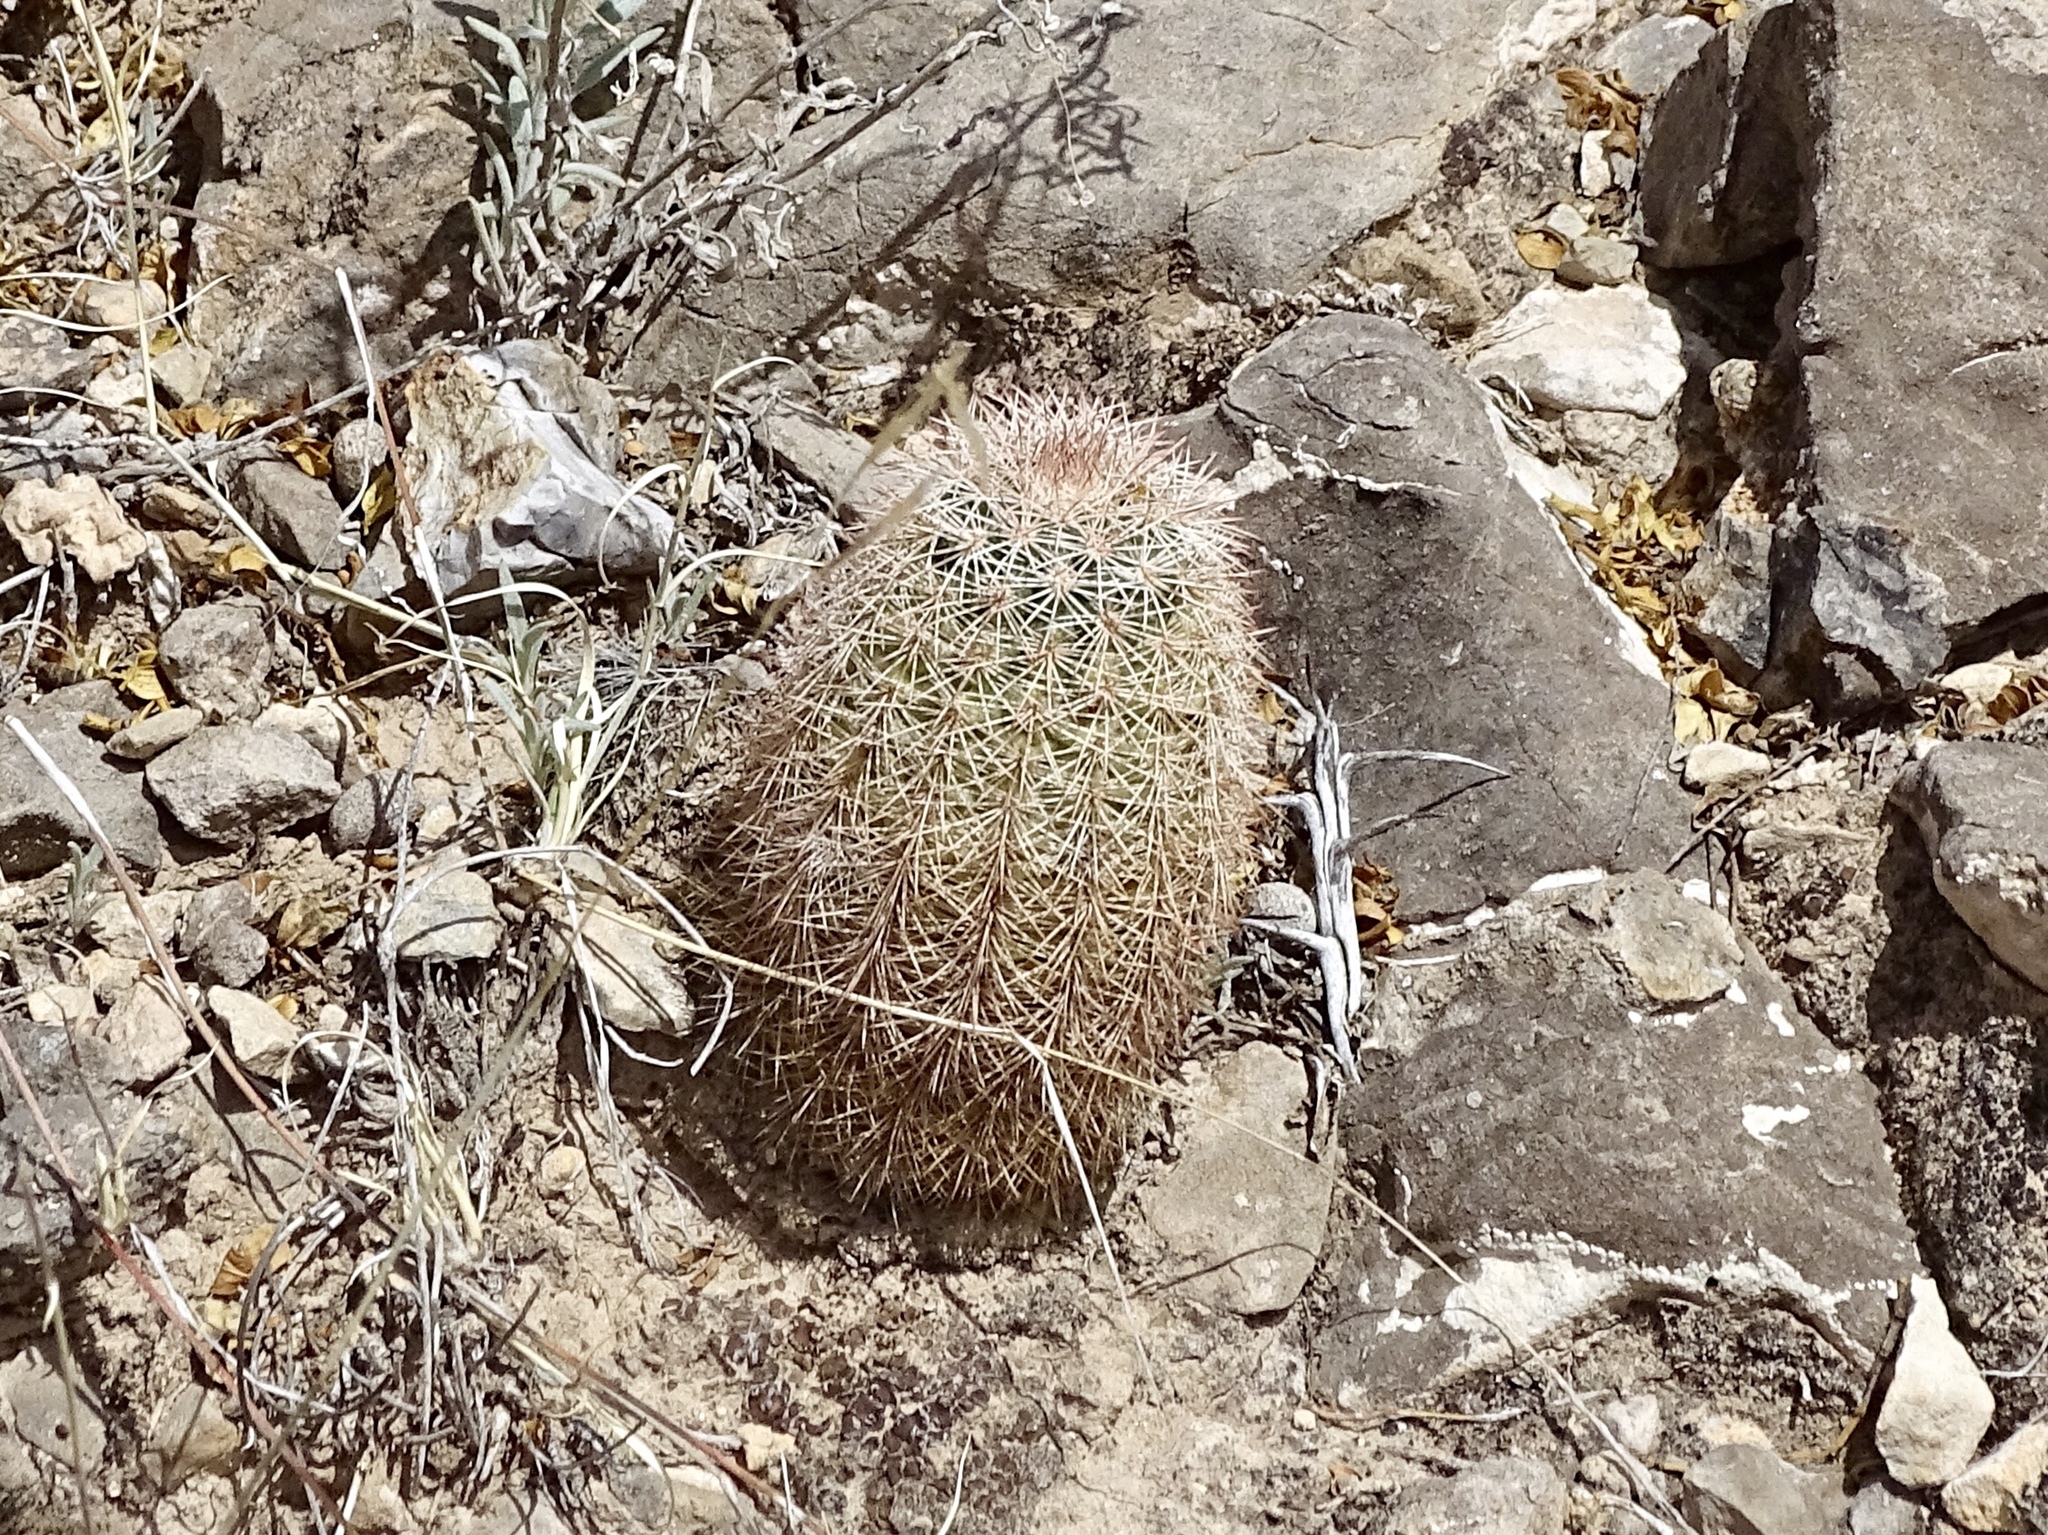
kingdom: Plantae
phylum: Tracheophyta
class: Magnoliopsida
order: Caryophyllales
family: Cactaceae
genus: Echinocereus
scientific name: Echinocereus dasyacanthus
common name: Spiny hedgehog cactus
